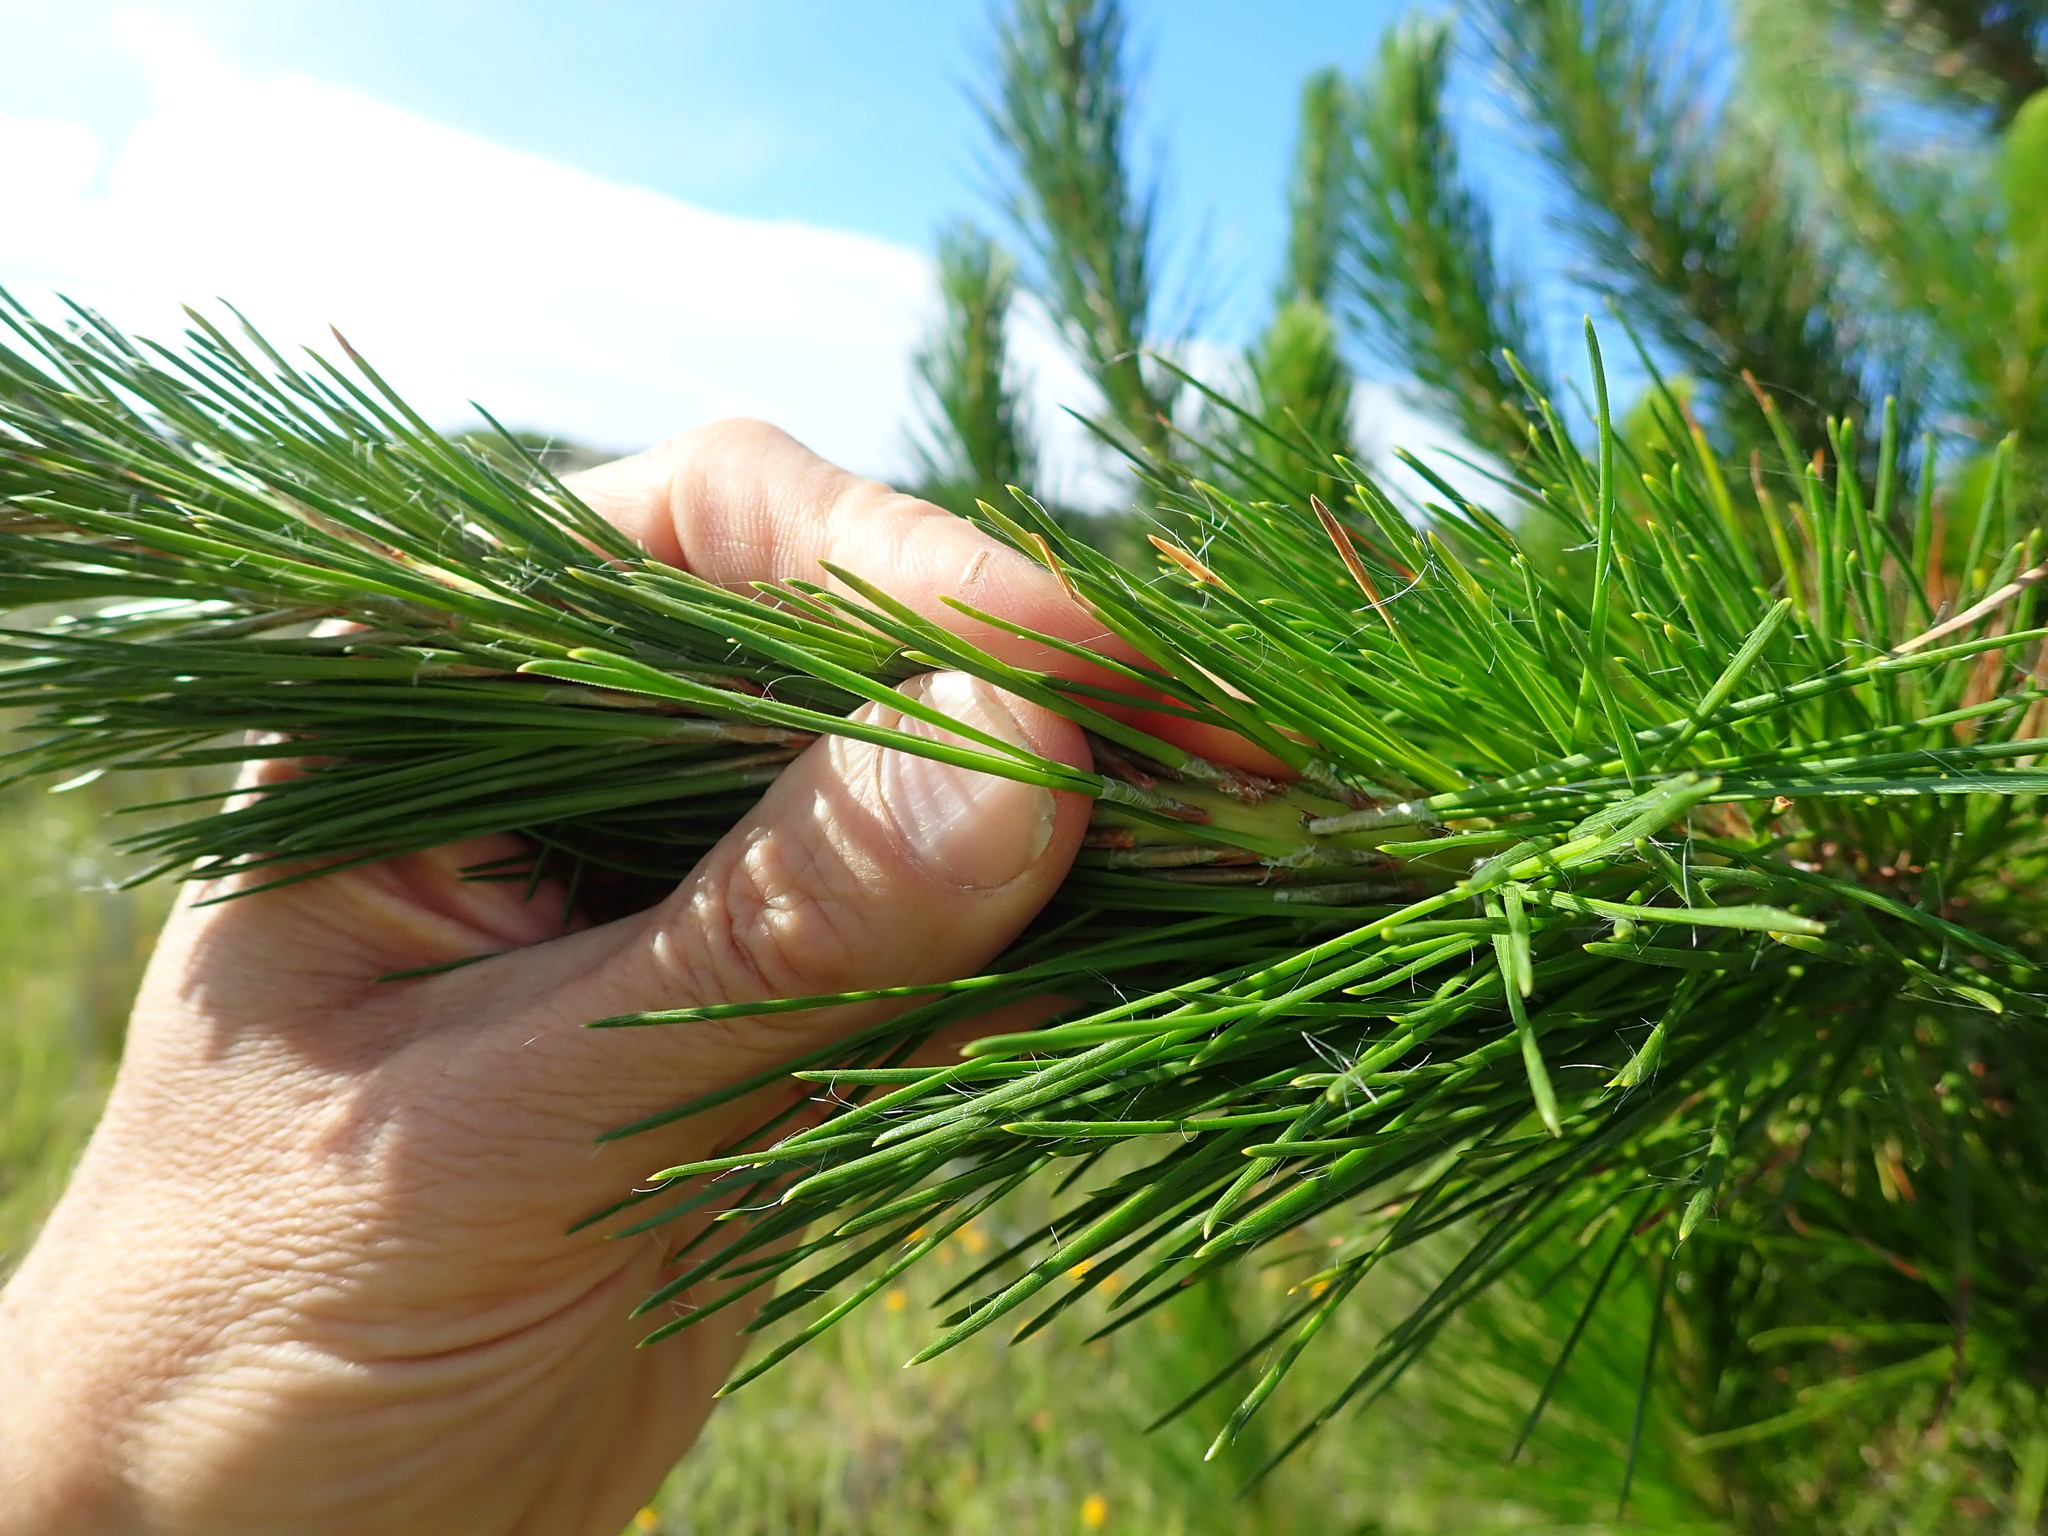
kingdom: Plantae
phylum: Tracheophyta
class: Pinopsida
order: Pinales
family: Pinaceae
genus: Pinus
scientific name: Pinus radiata
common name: Monterey pine
